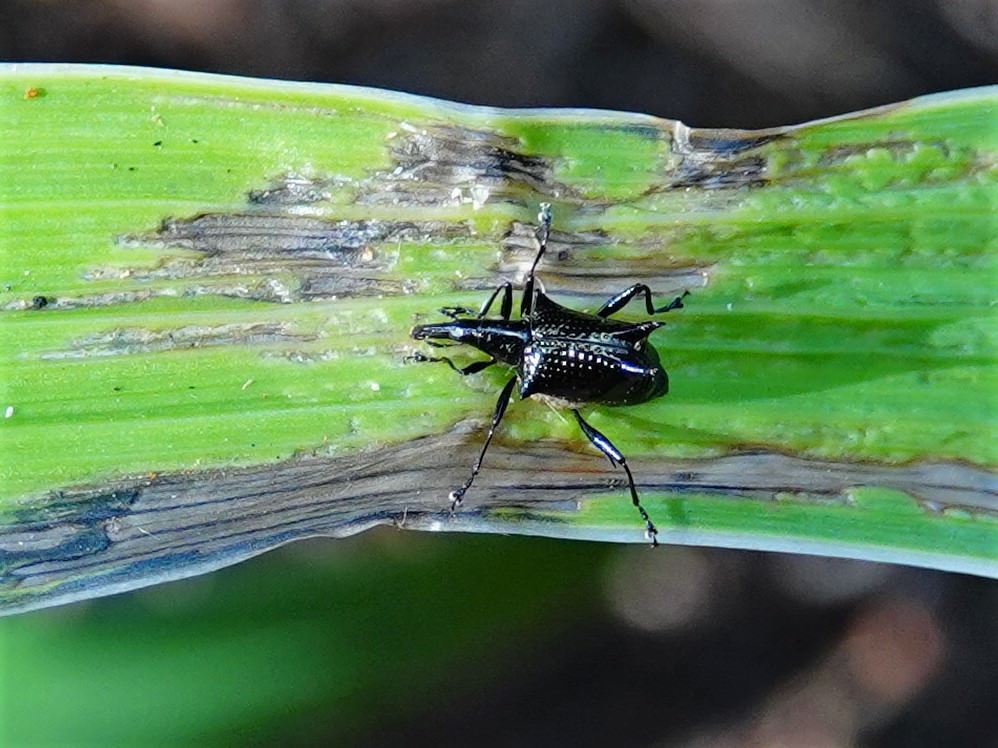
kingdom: Animalia
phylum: Arthropoda
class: Insecta
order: Coleoptera
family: Curculionidae
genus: Scolopterus
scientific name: Scolopterus aequus
